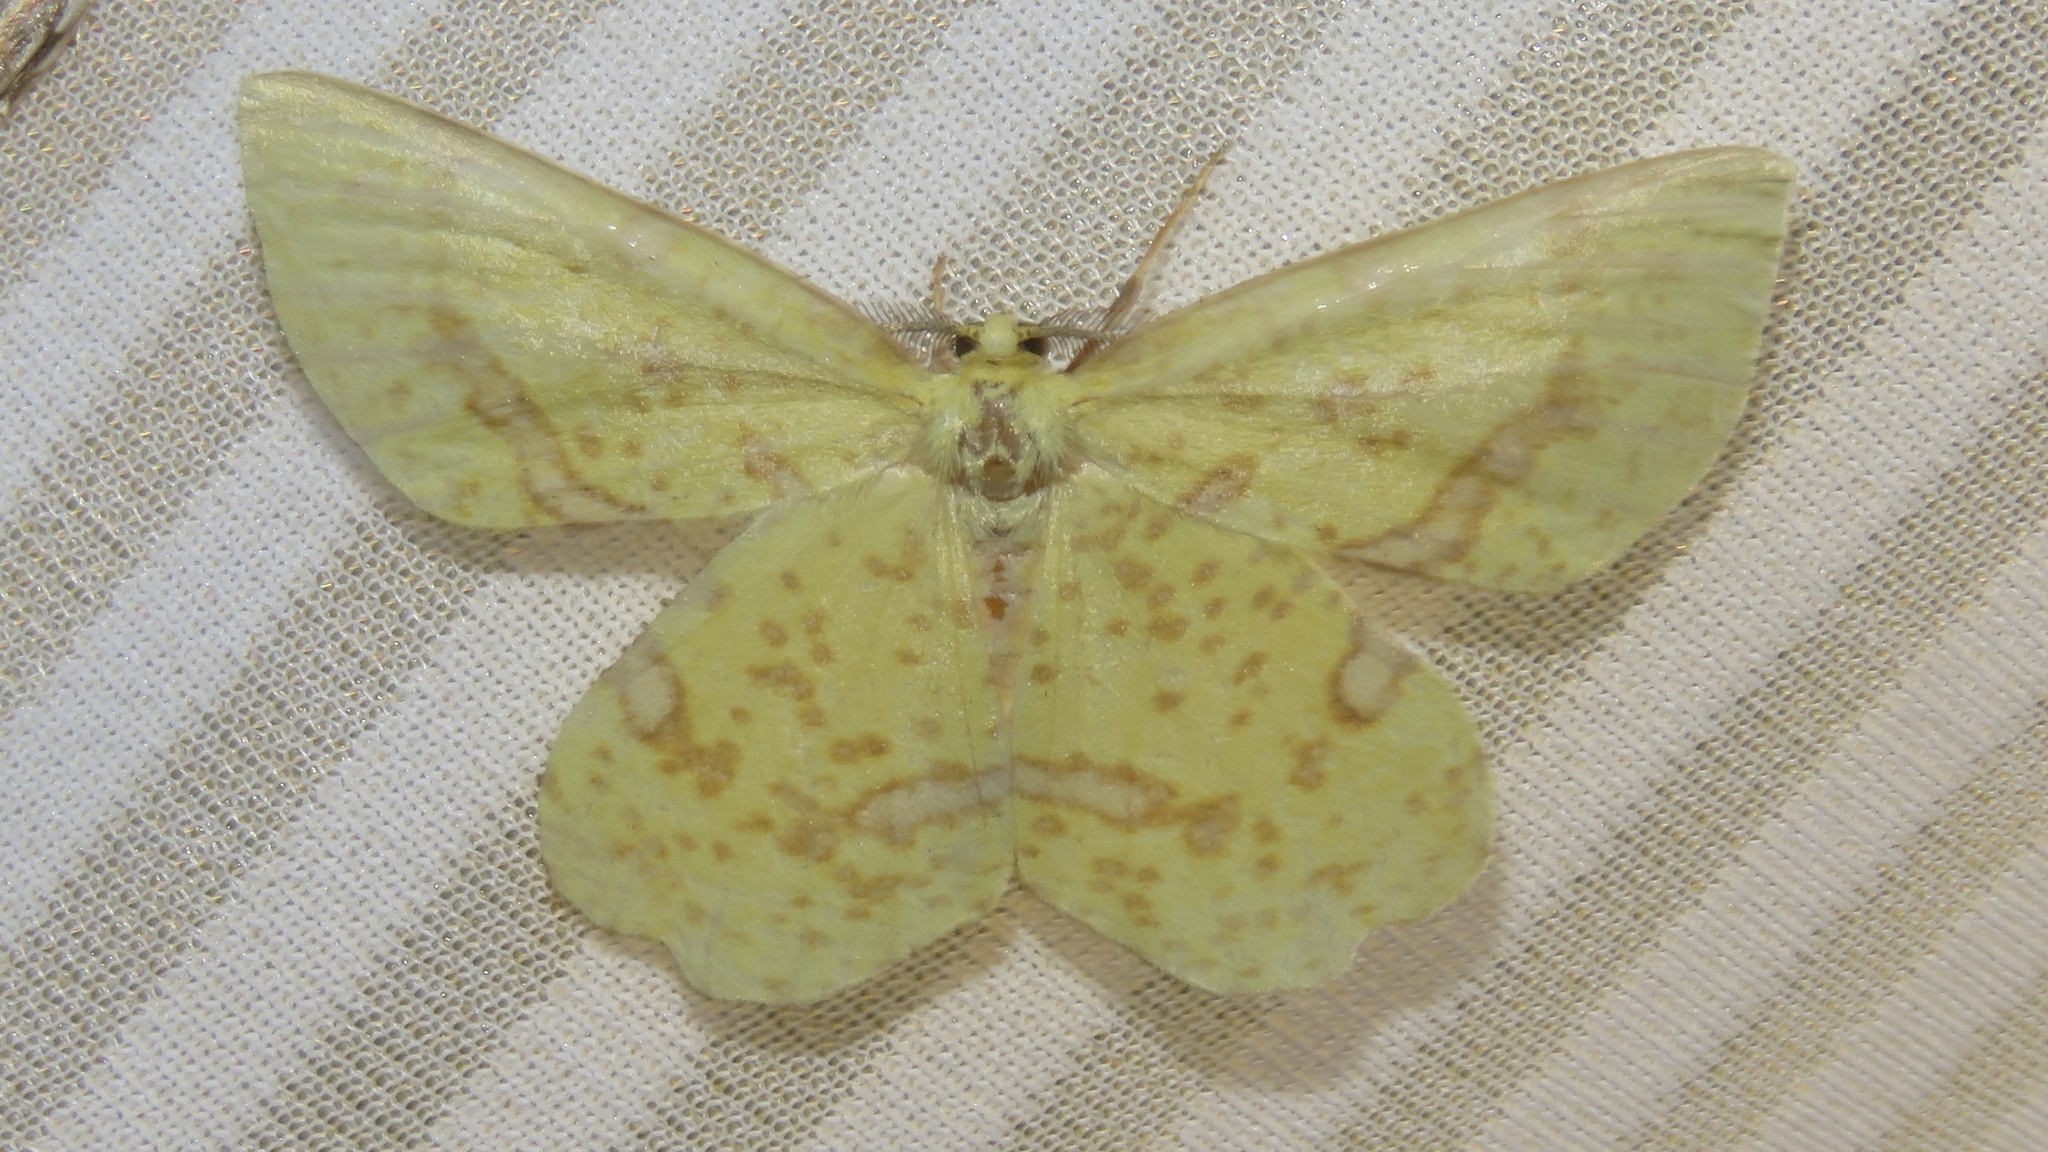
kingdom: Animalia
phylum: Arthropoda
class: Insecta
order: Lepidoptera
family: Geometridae
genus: Xanthotype
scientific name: Xanthotype
